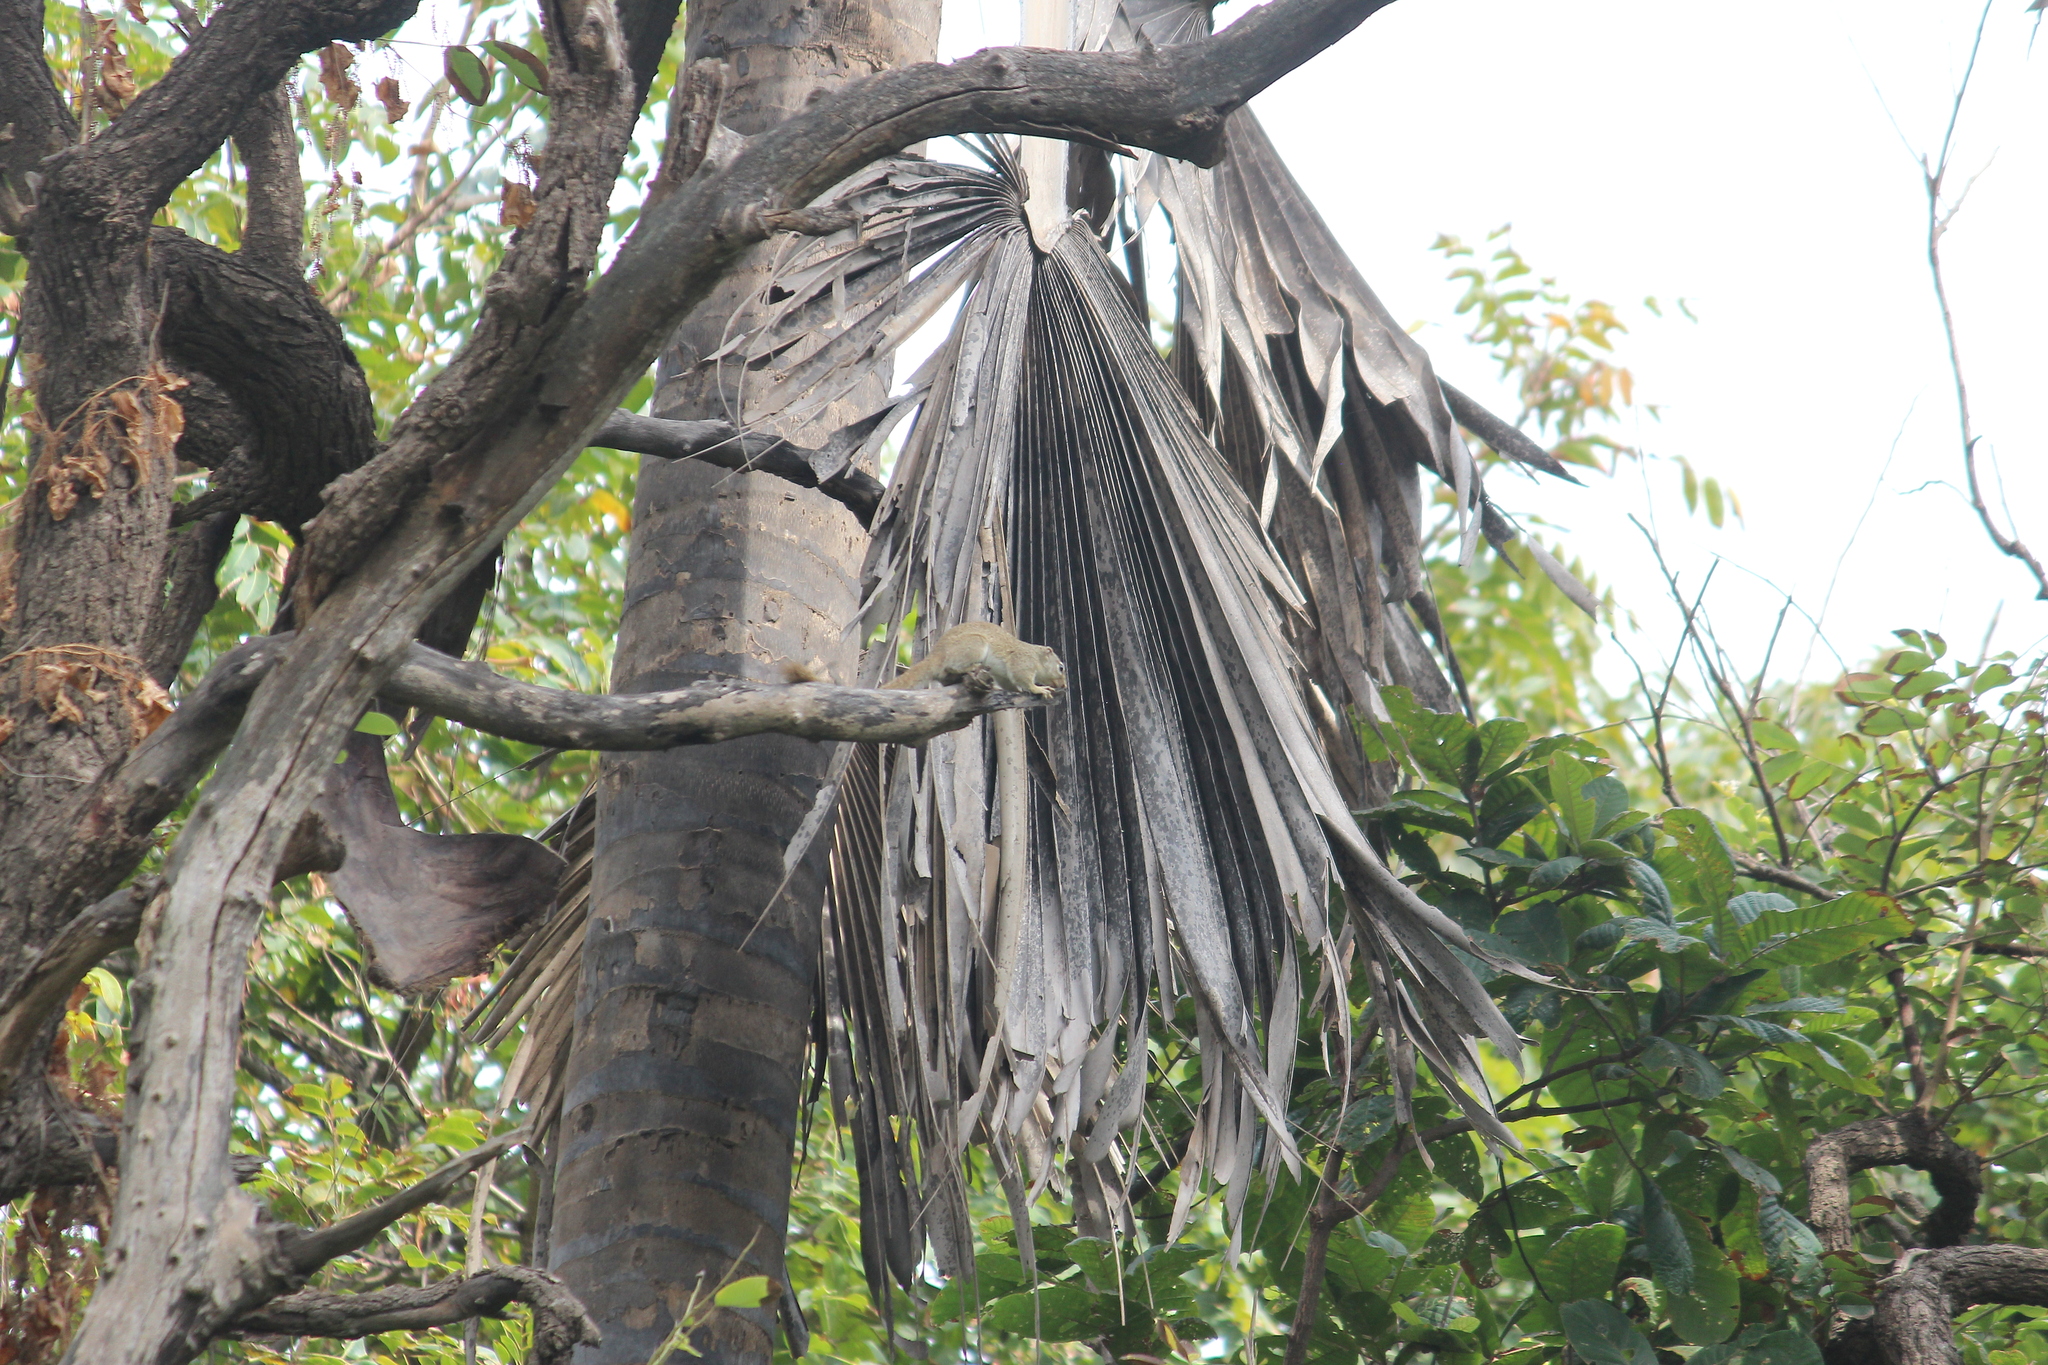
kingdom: Animalia
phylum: Chordata
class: Mammalia
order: Rodentia
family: Sciuridae
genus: Heliosciurus
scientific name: Heliosciurus gambianus
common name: Gambian sun squirrel
